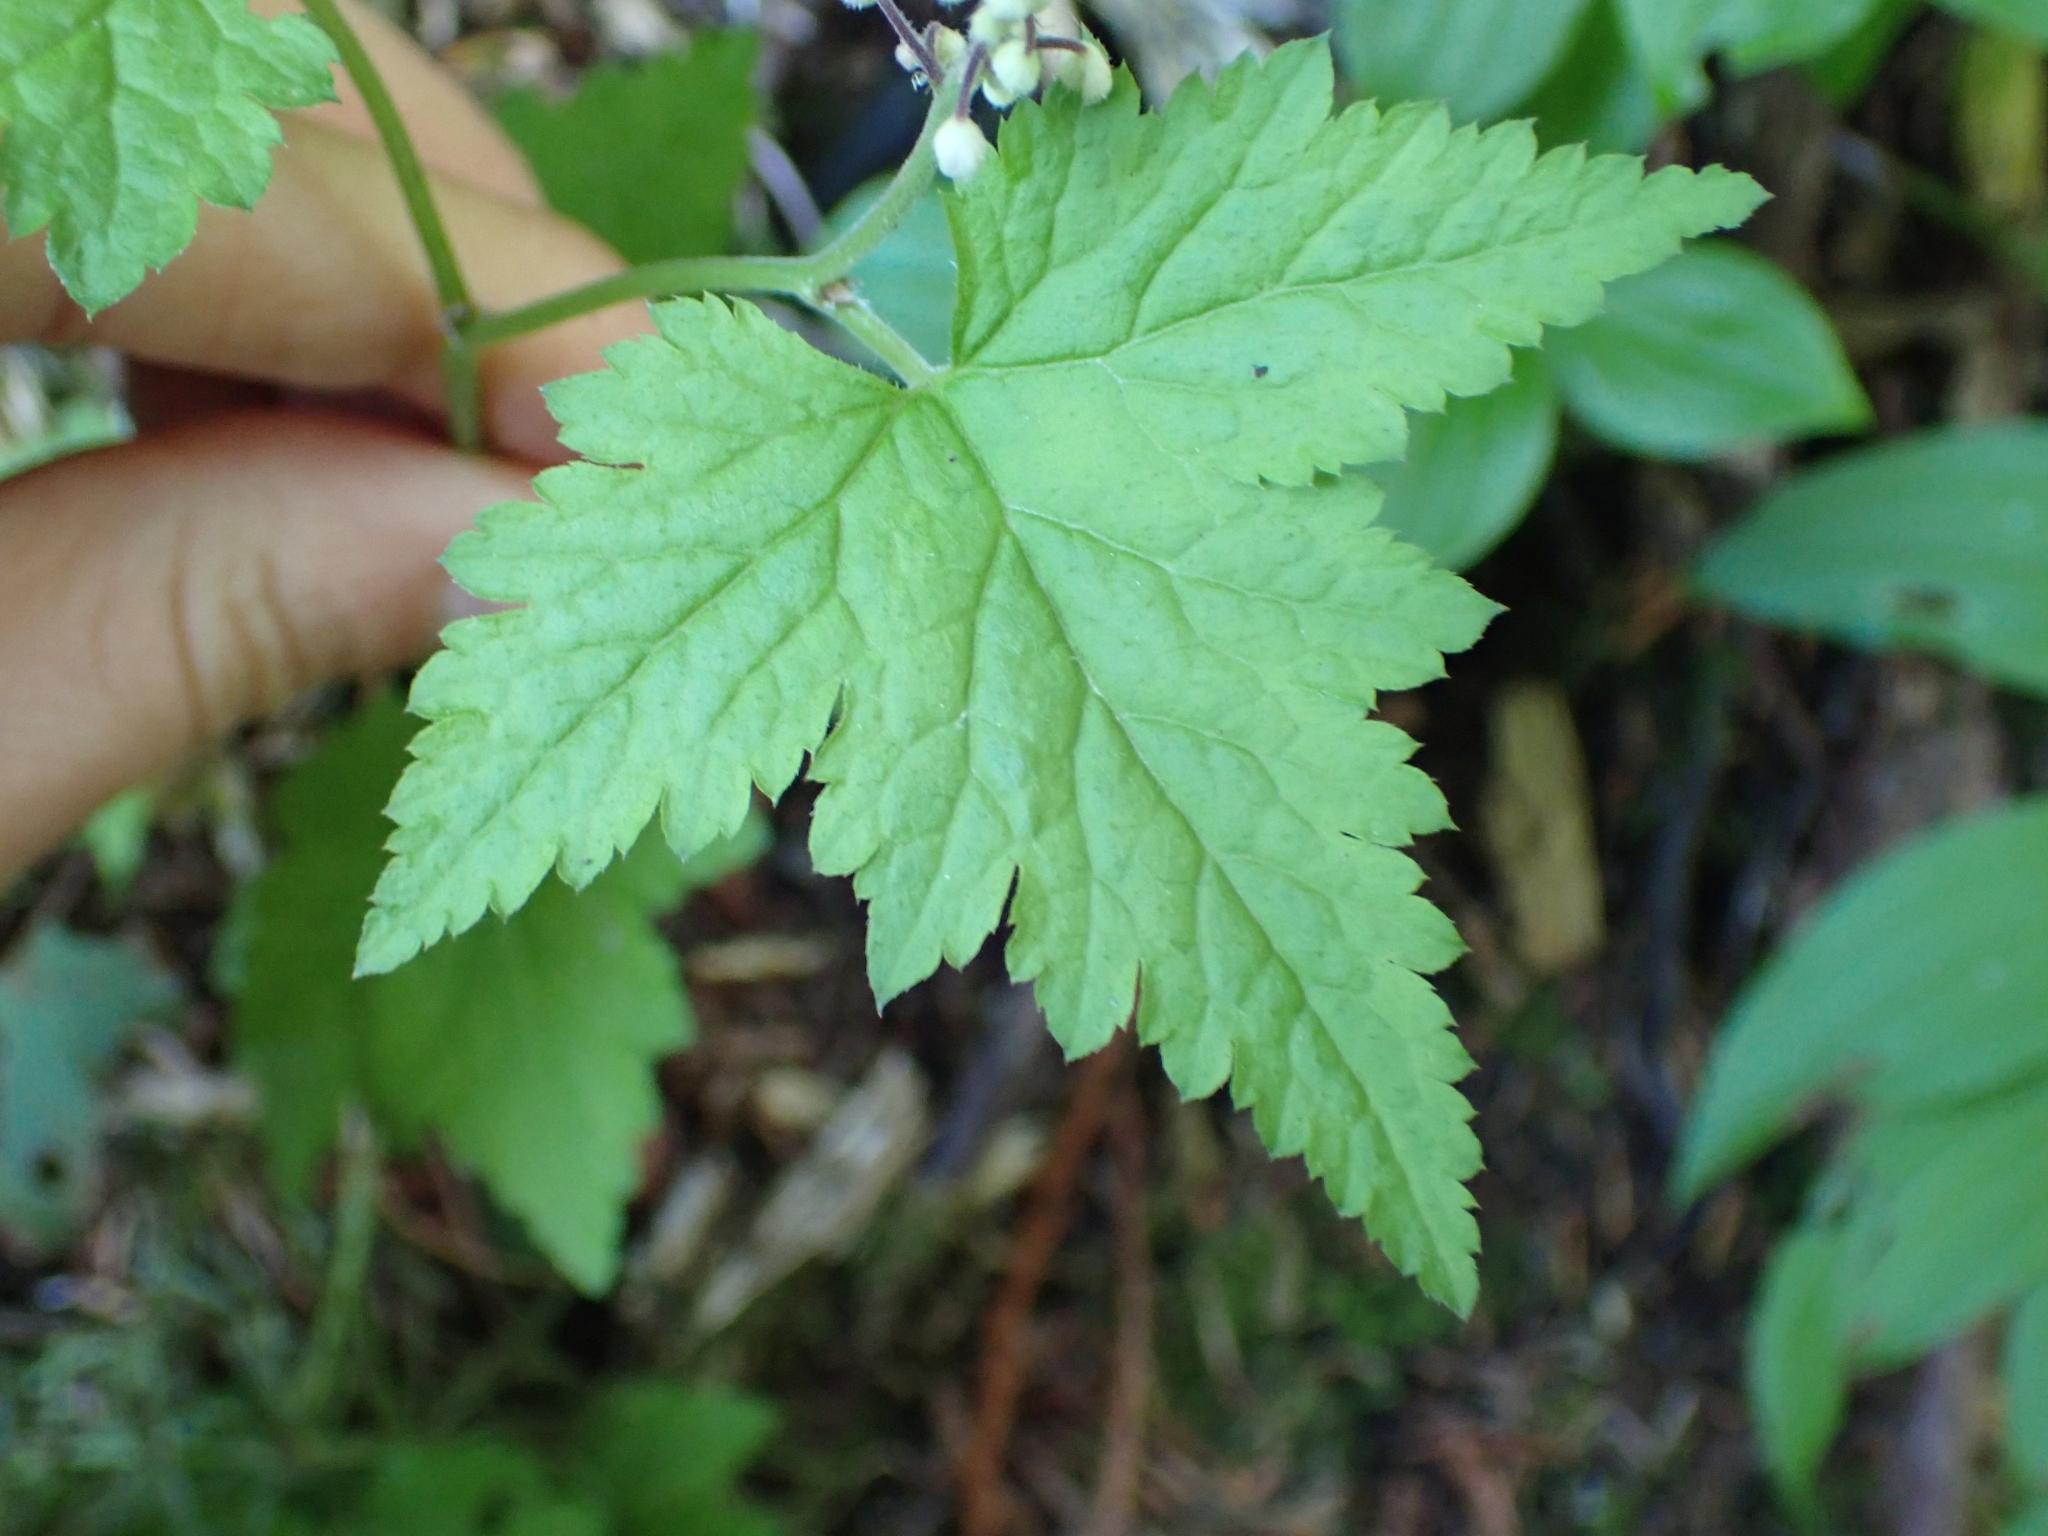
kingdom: Plantae
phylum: Tracheophyta
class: Magnoliopsida
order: Saxifragales
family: Saxifragaceae
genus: Tiarella
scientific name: Tiarella trifoliata
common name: Sugar-scoop
